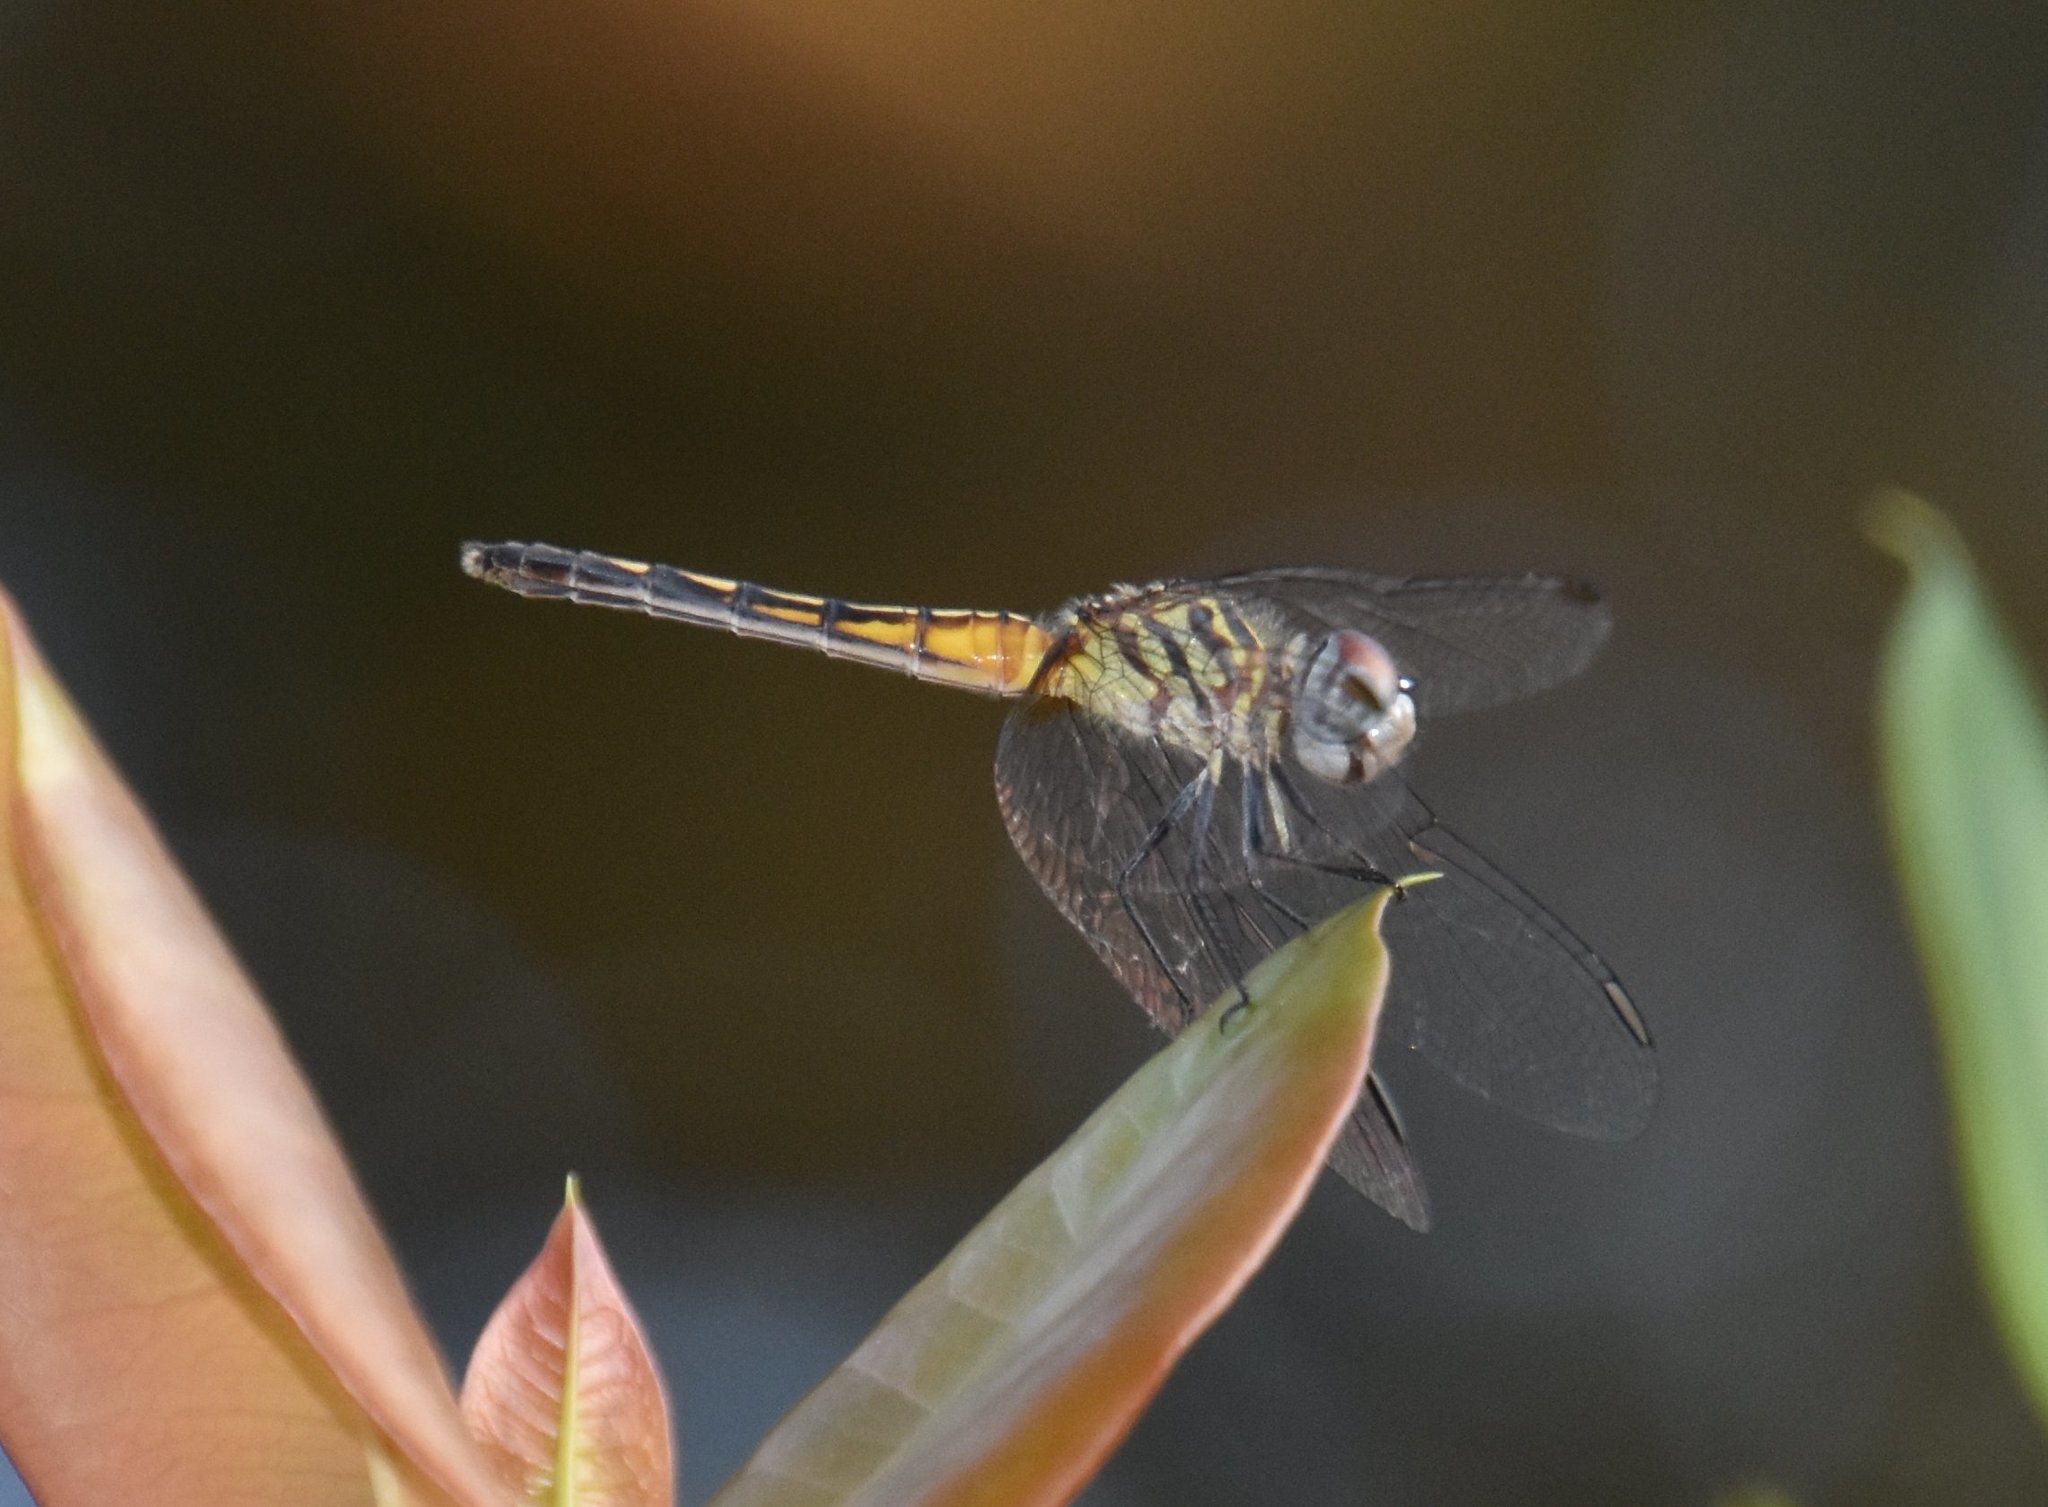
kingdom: Animalia
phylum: Arthropoda
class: Insecta
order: Odonata
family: Libellulidae
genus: Pachydiplax
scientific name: Pachydiplax longipennis
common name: Blue dasher
